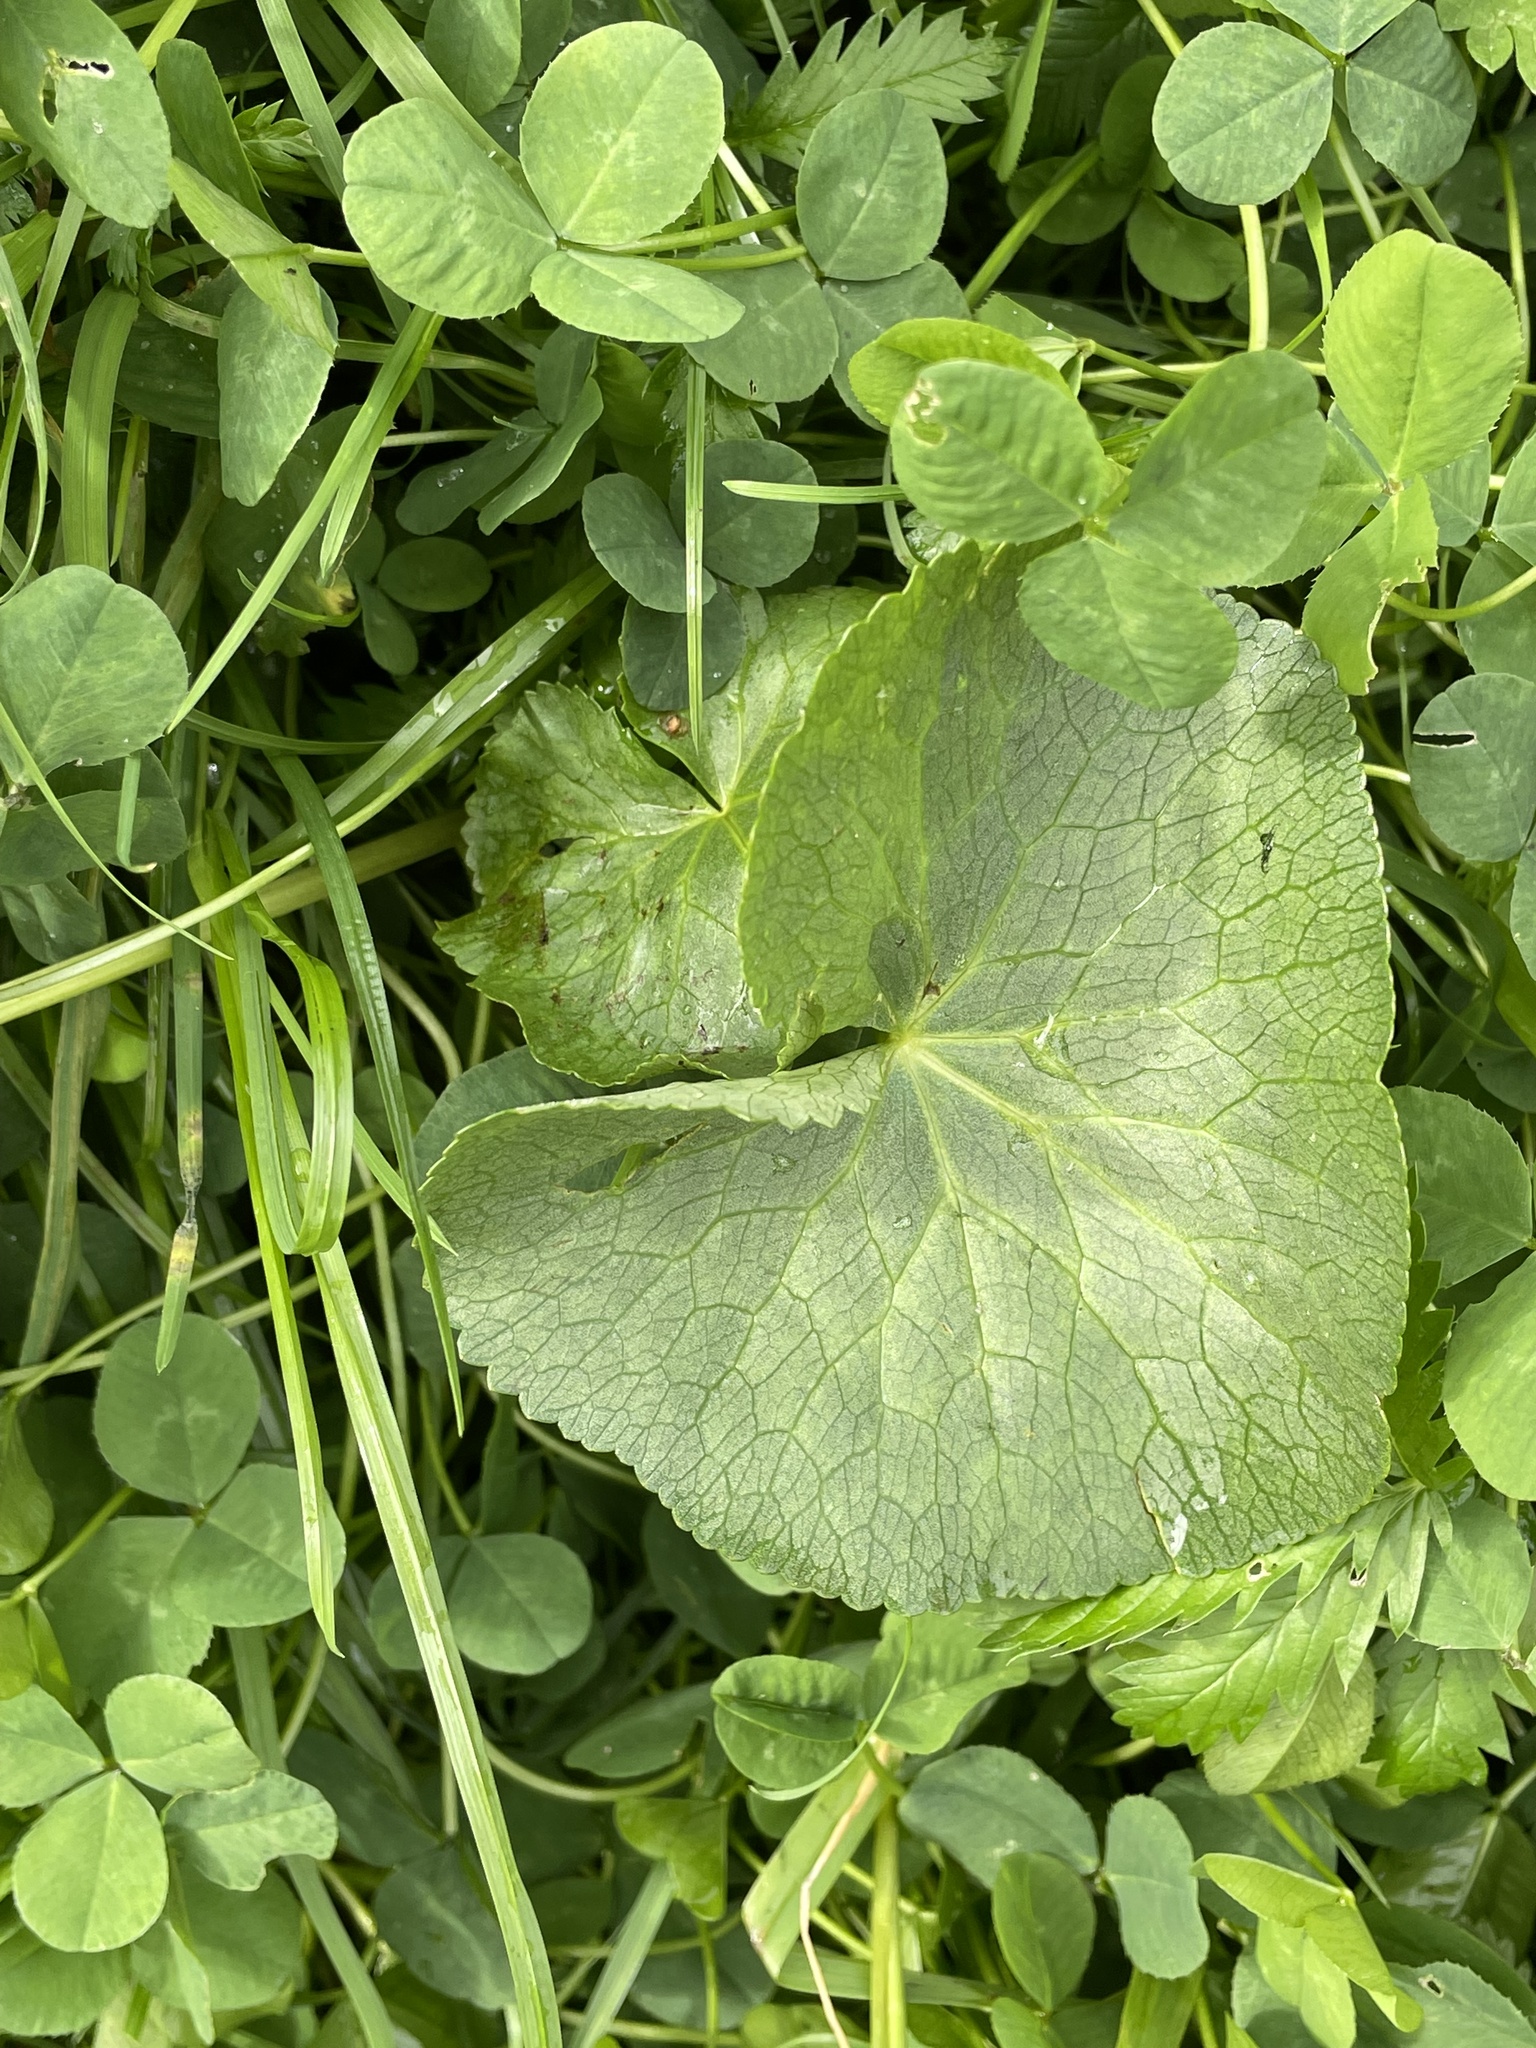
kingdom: Plantae
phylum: Tracheophyta
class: Magnoliopsida
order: Ranunculales
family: Ranunculaceae
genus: Caltha
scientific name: Caltha palustris
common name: Marsh marigold
